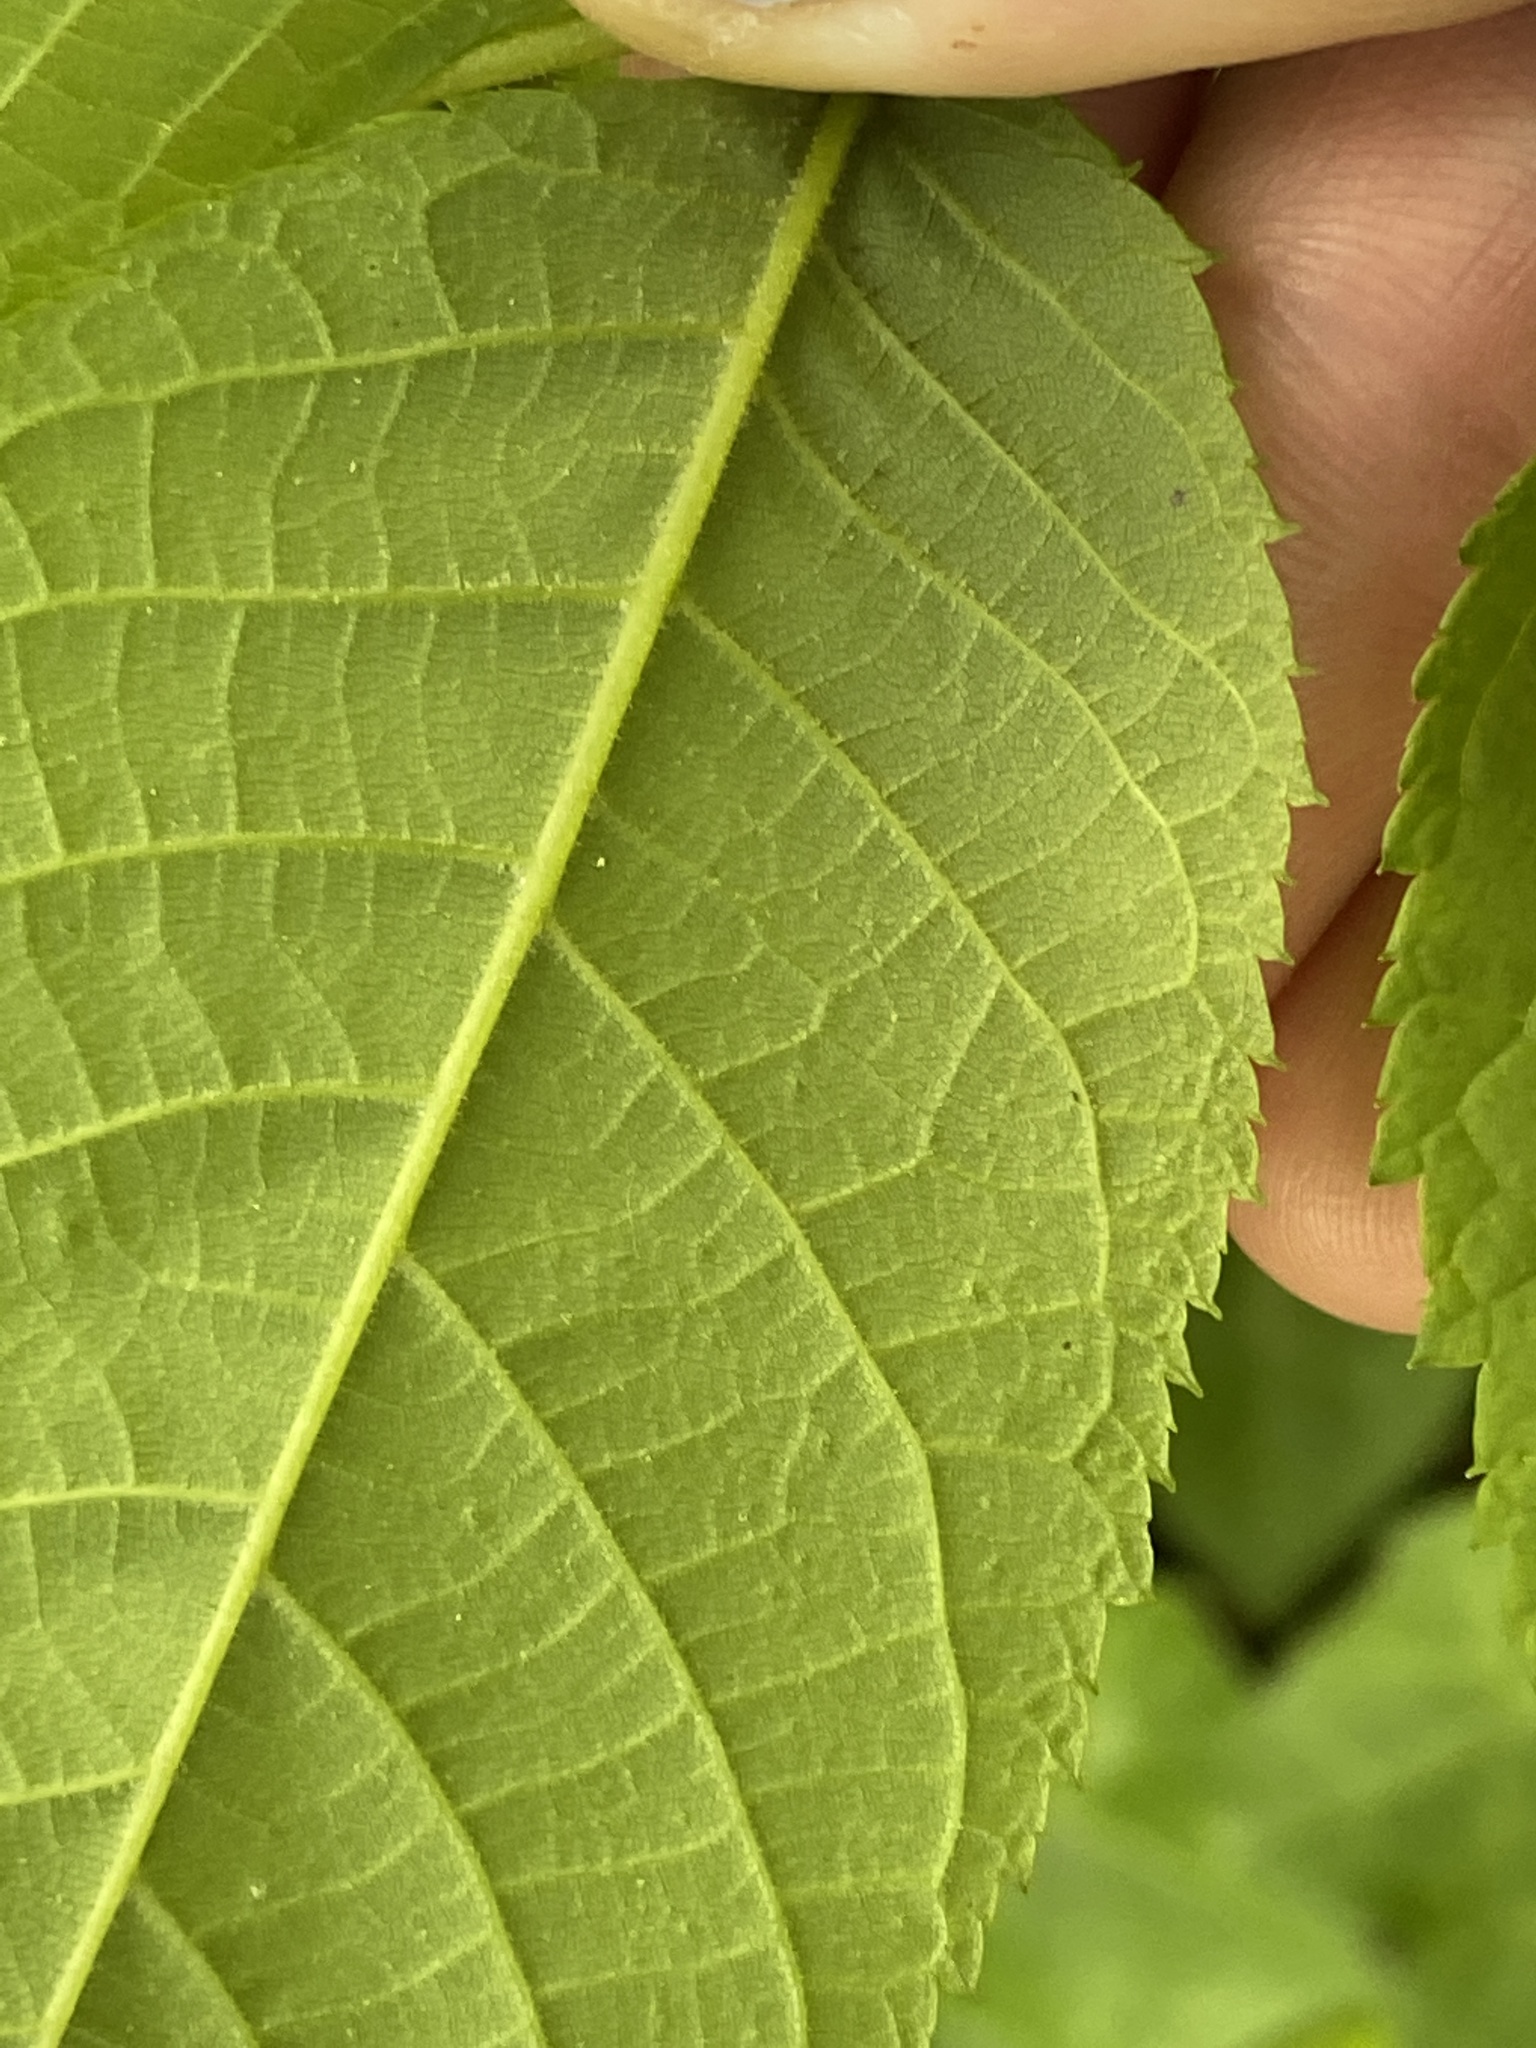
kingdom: Plantae
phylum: Tracheophyta
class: Magnoliopsida
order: Fagales
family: Juglandaceae
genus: Juglans
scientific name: Juglans nigra
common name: Black walnut
